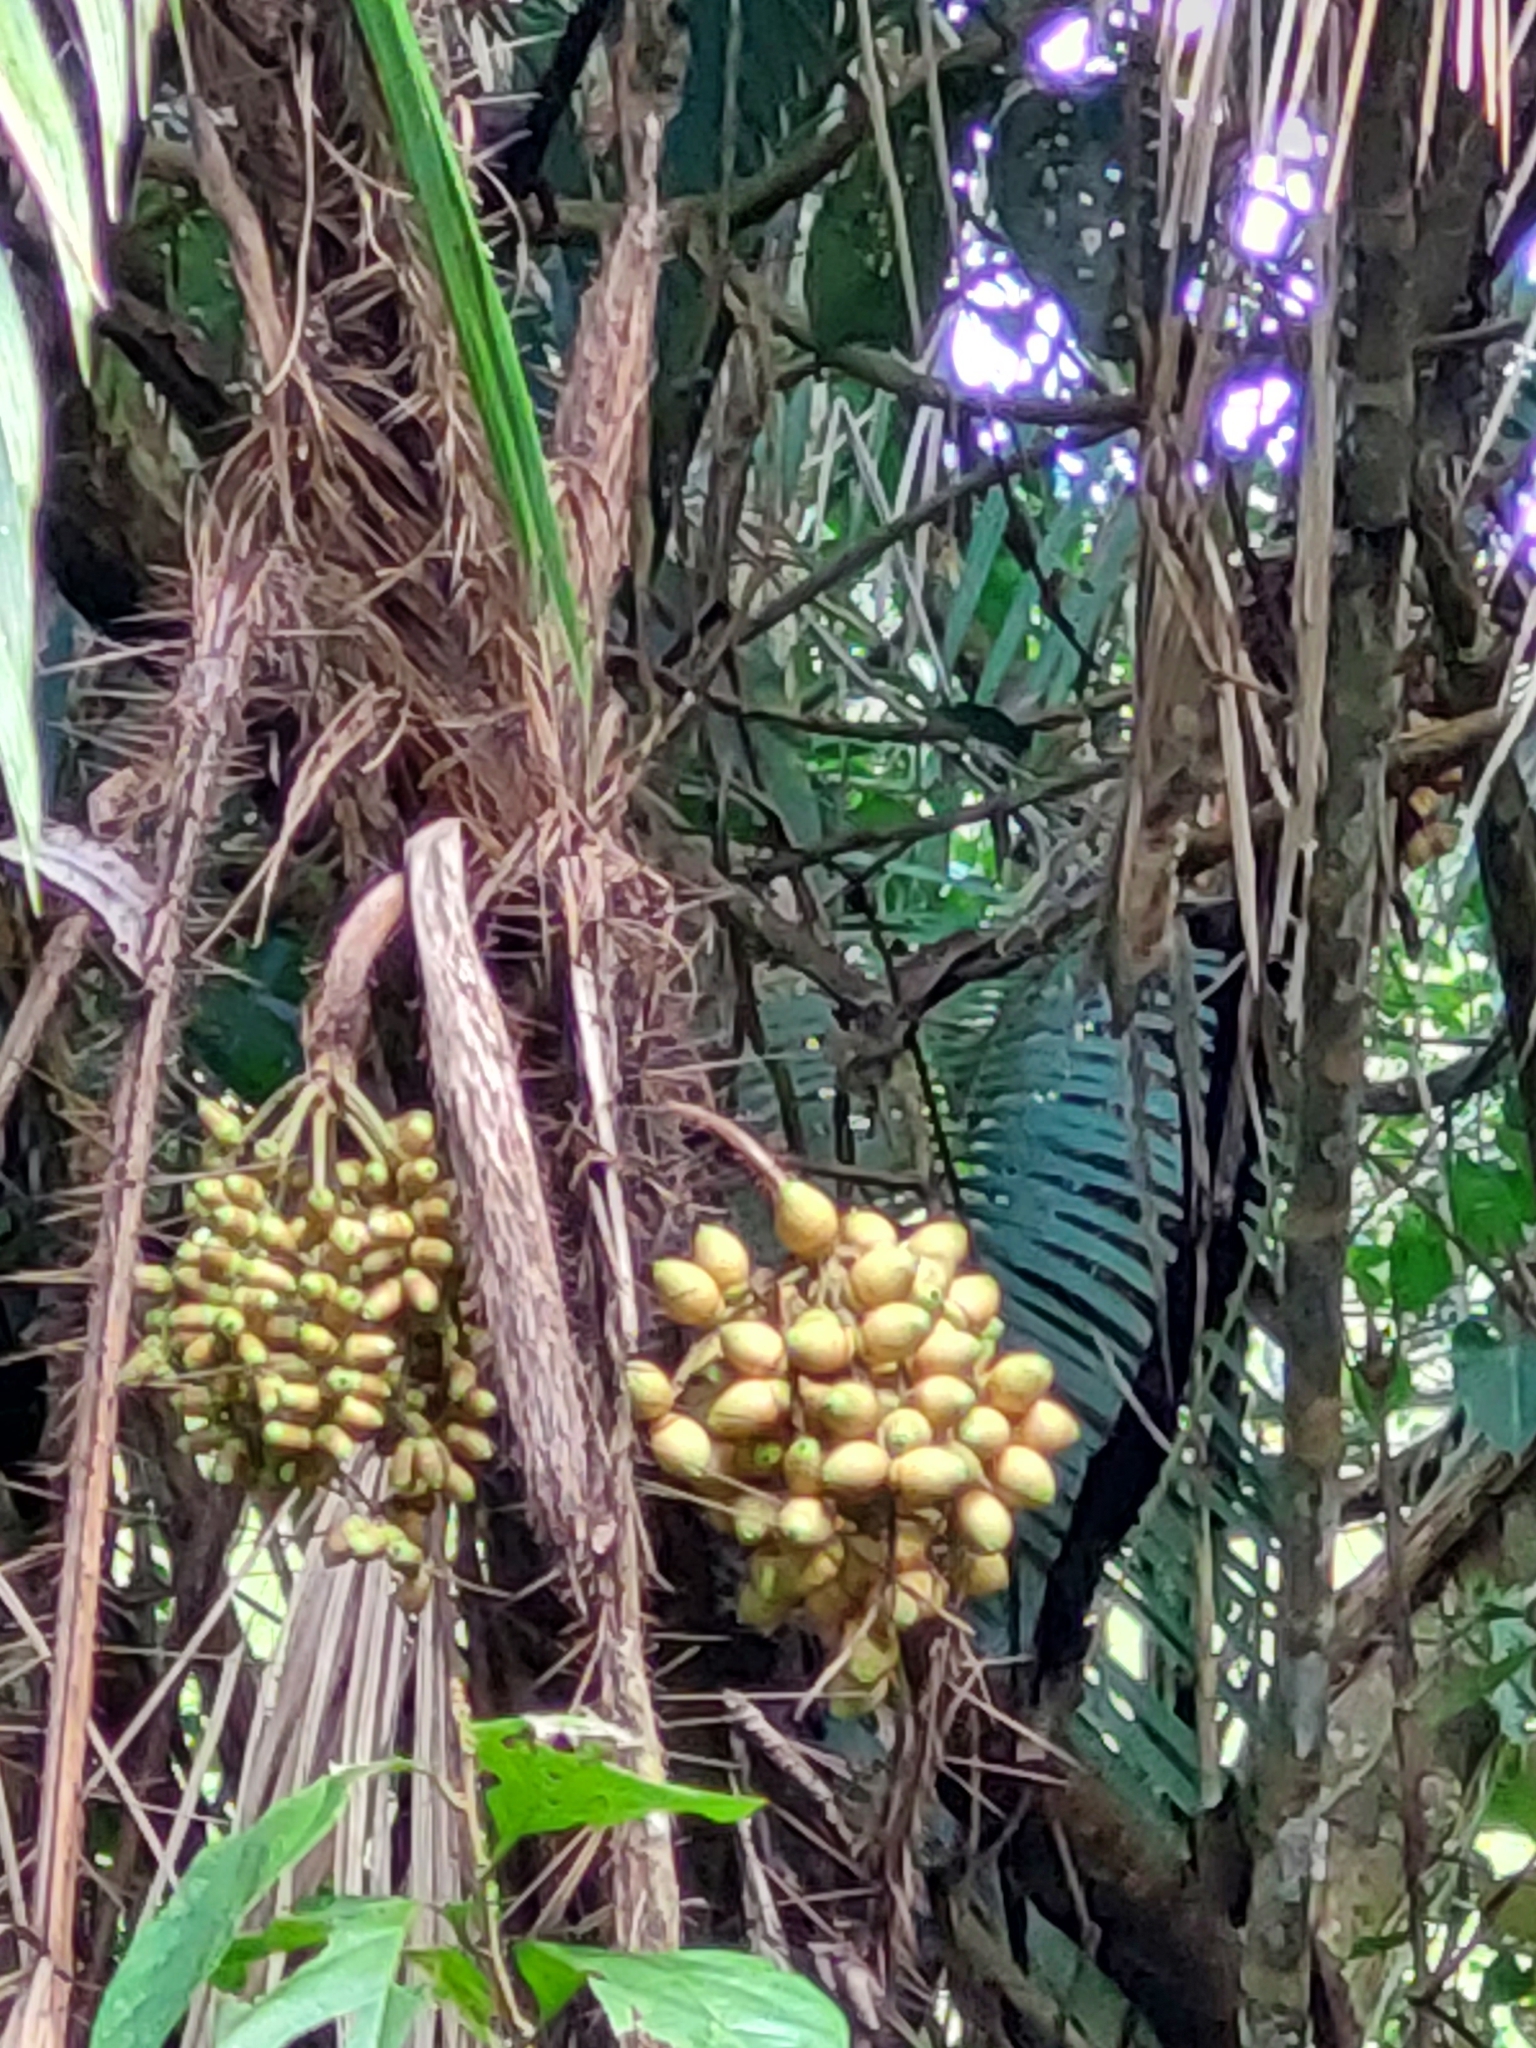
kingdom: Plantae
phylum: Tracheophyta
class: Liliopsida
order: Arecales
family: Arecaceae
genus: Bactris
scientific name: Bactris major
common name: Beach palm
